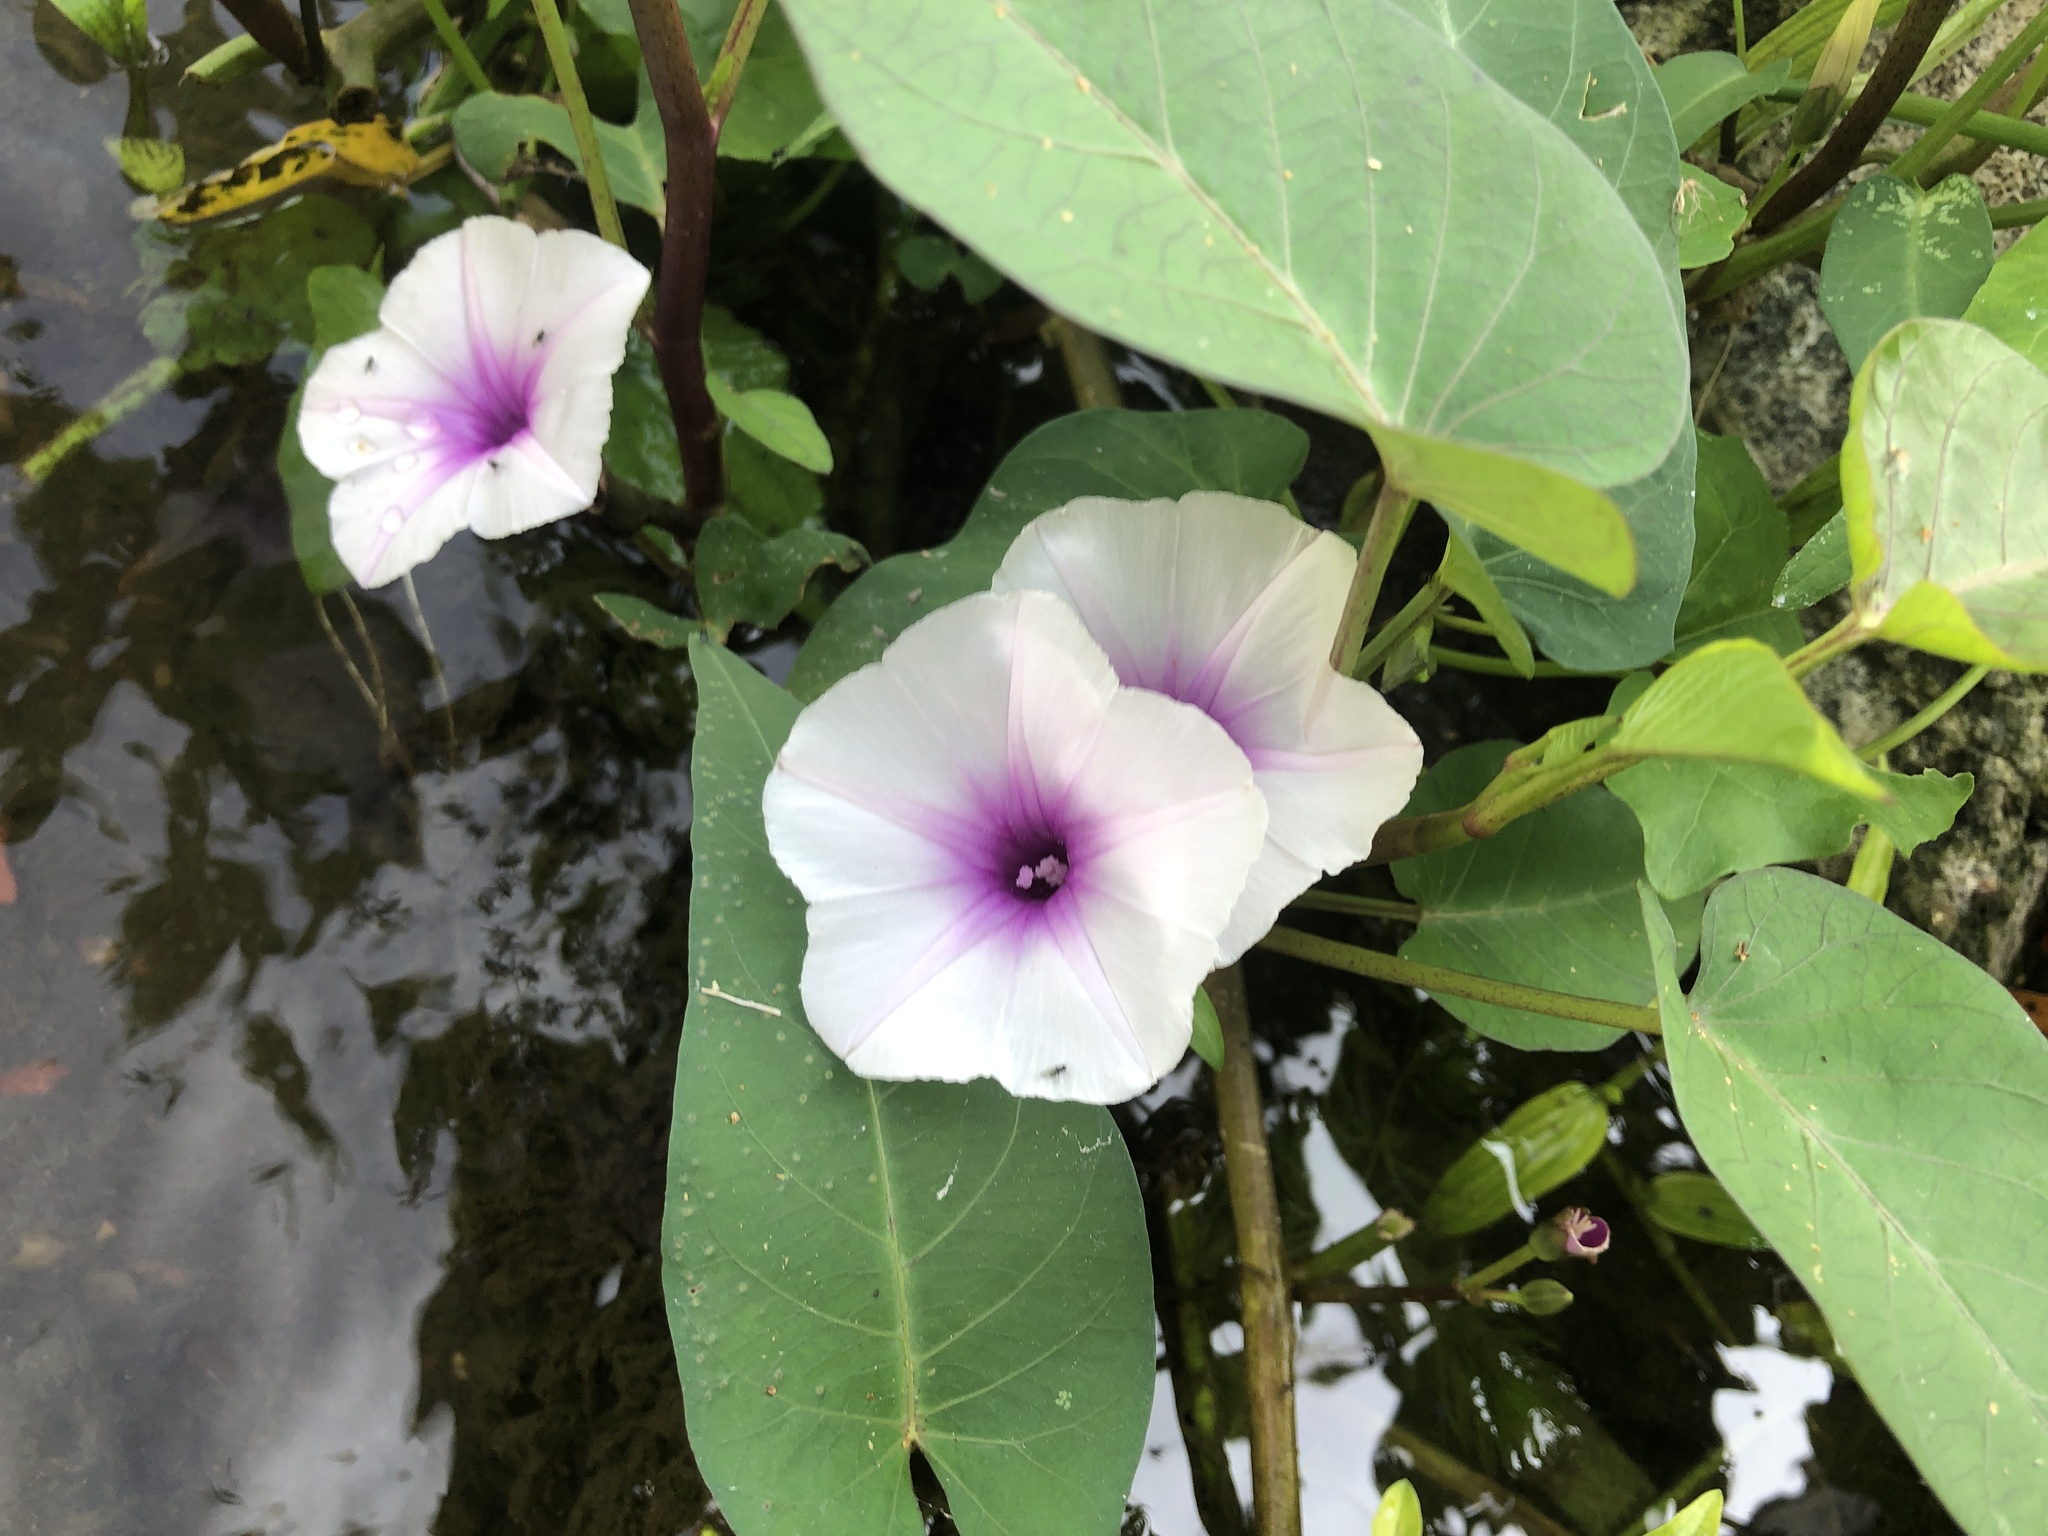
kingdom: Plantae
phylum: Tracheophyta
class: Magnoliopsida
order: Solanales
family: Convolvulaceae
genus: Ipomoea
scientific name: Ipomoea aquatica
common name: Swamp morning-glory
